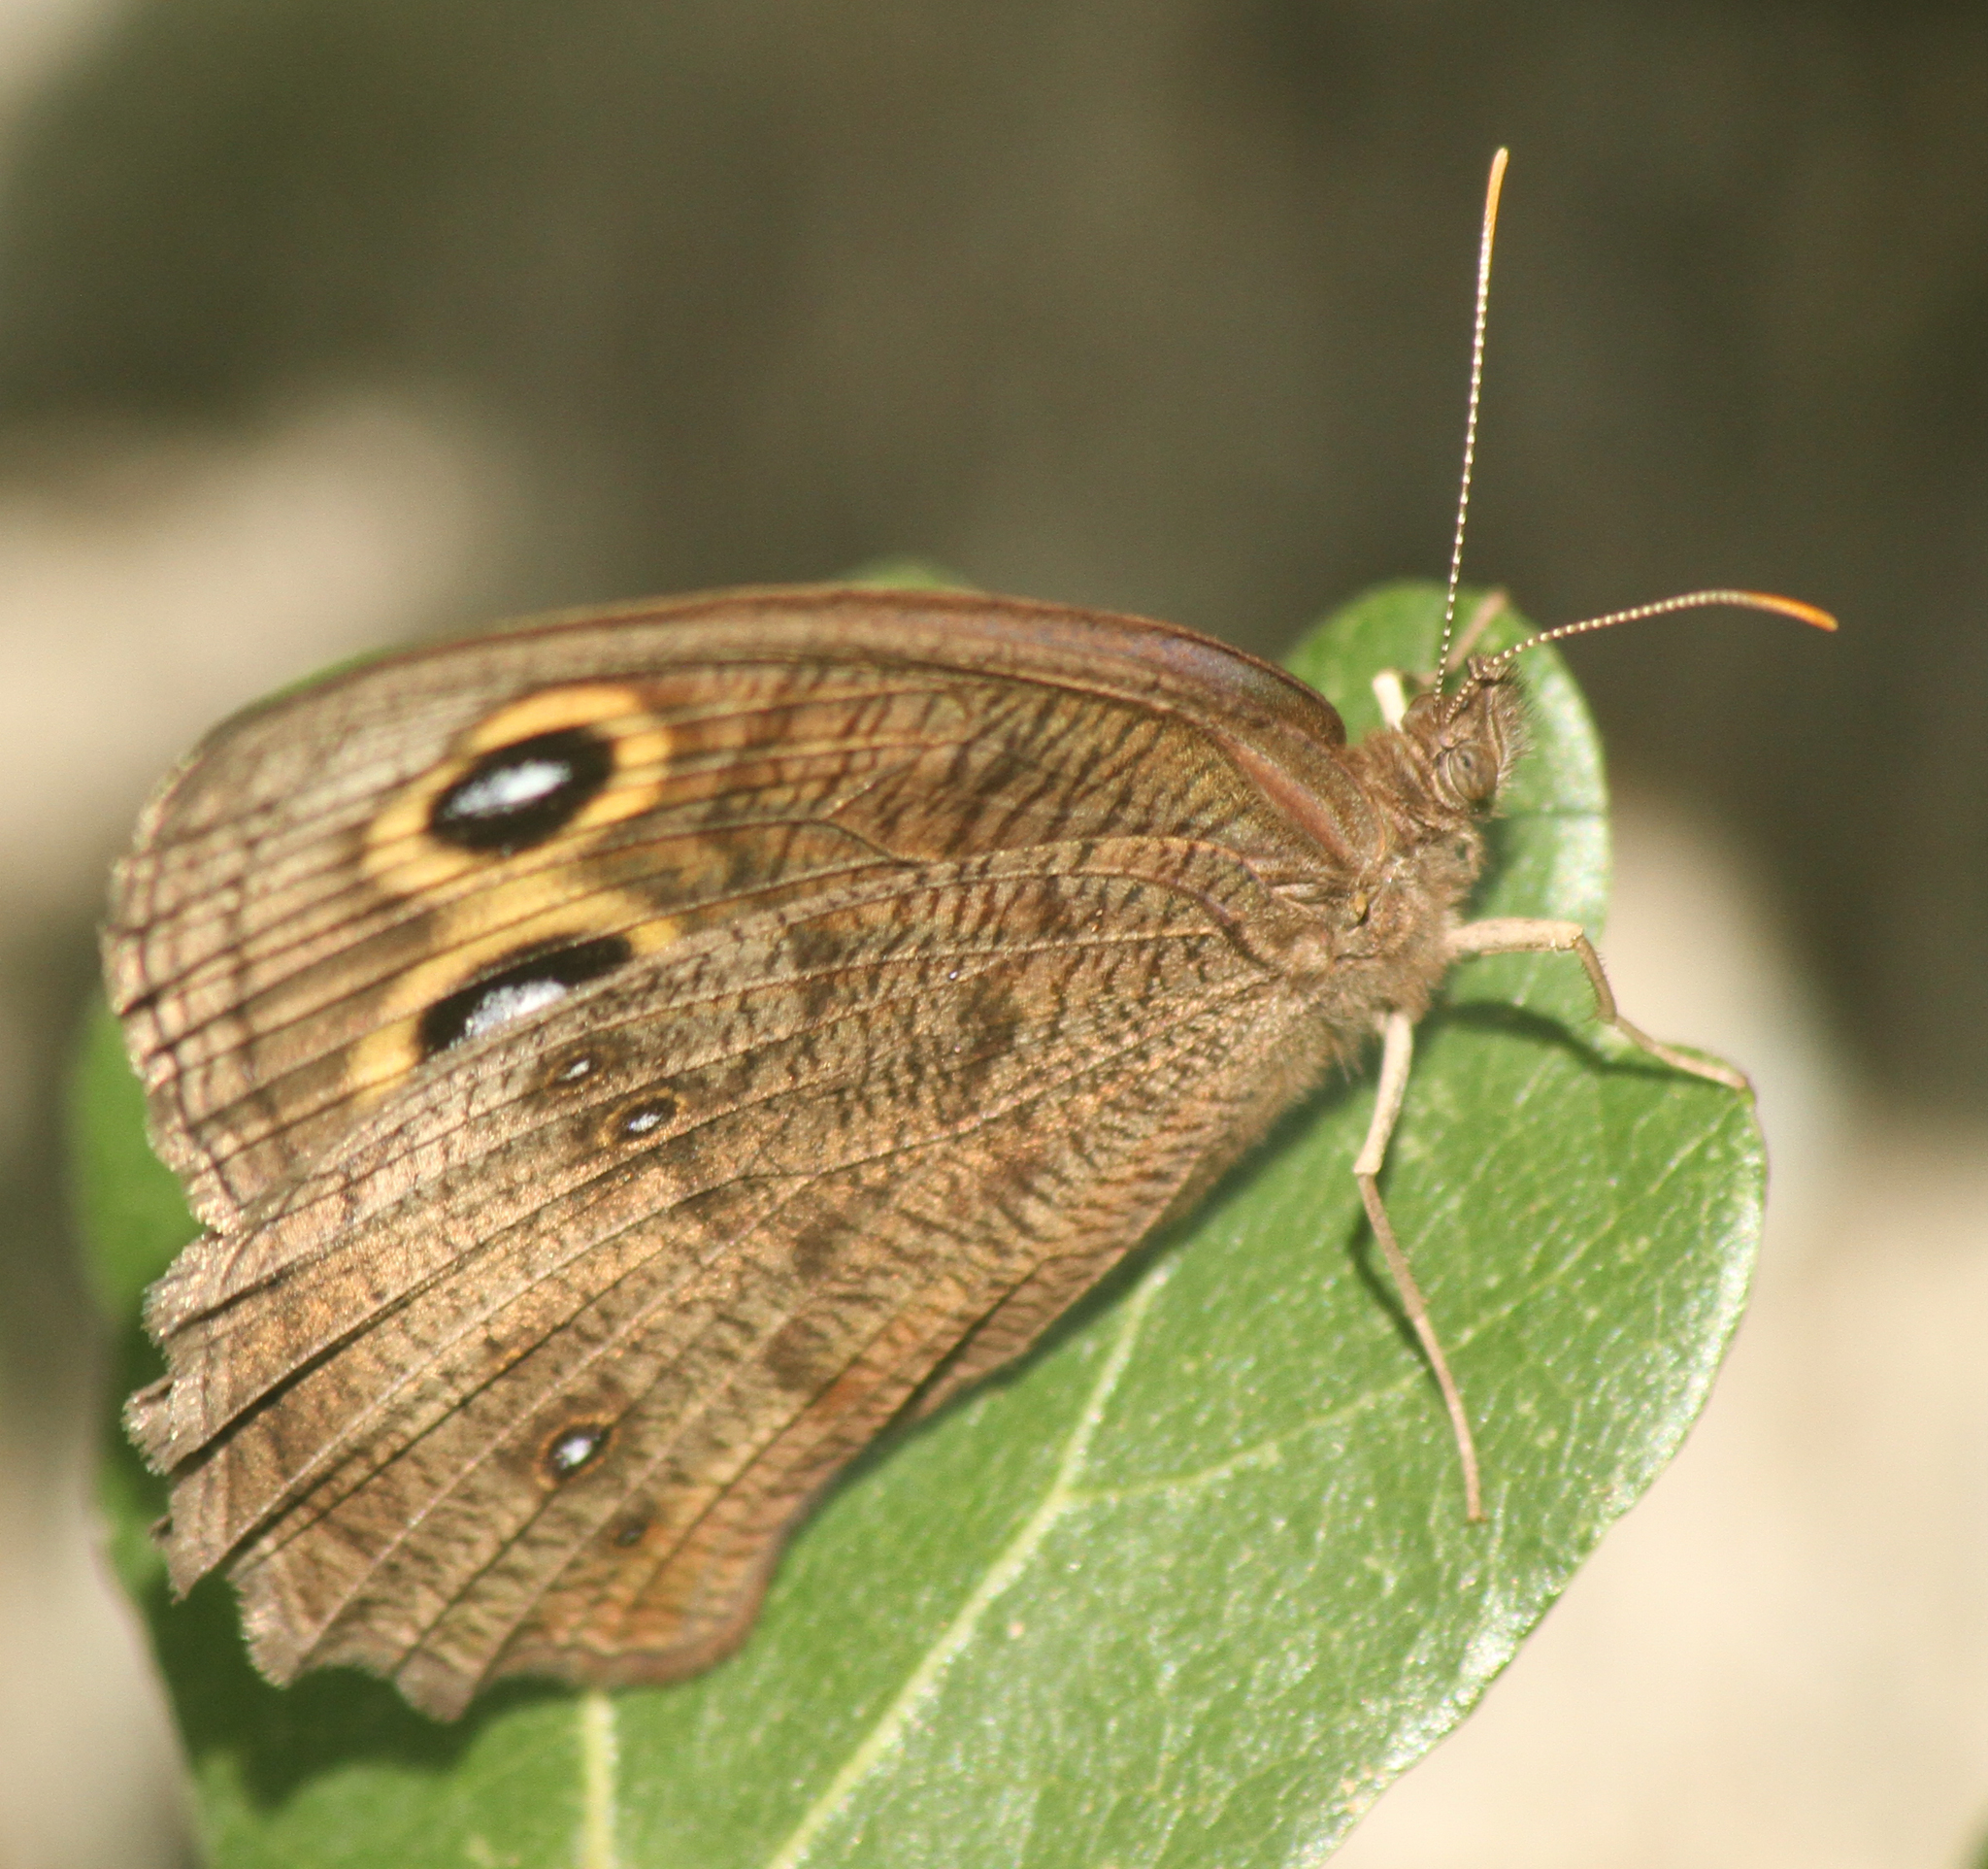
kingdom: Animalia
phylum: Arthropoda
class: Insecta
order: Lepidoptera
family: Nymphalidae
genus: Cercyonis
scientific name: Cercyonis pegala
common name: Common wood-nymph
